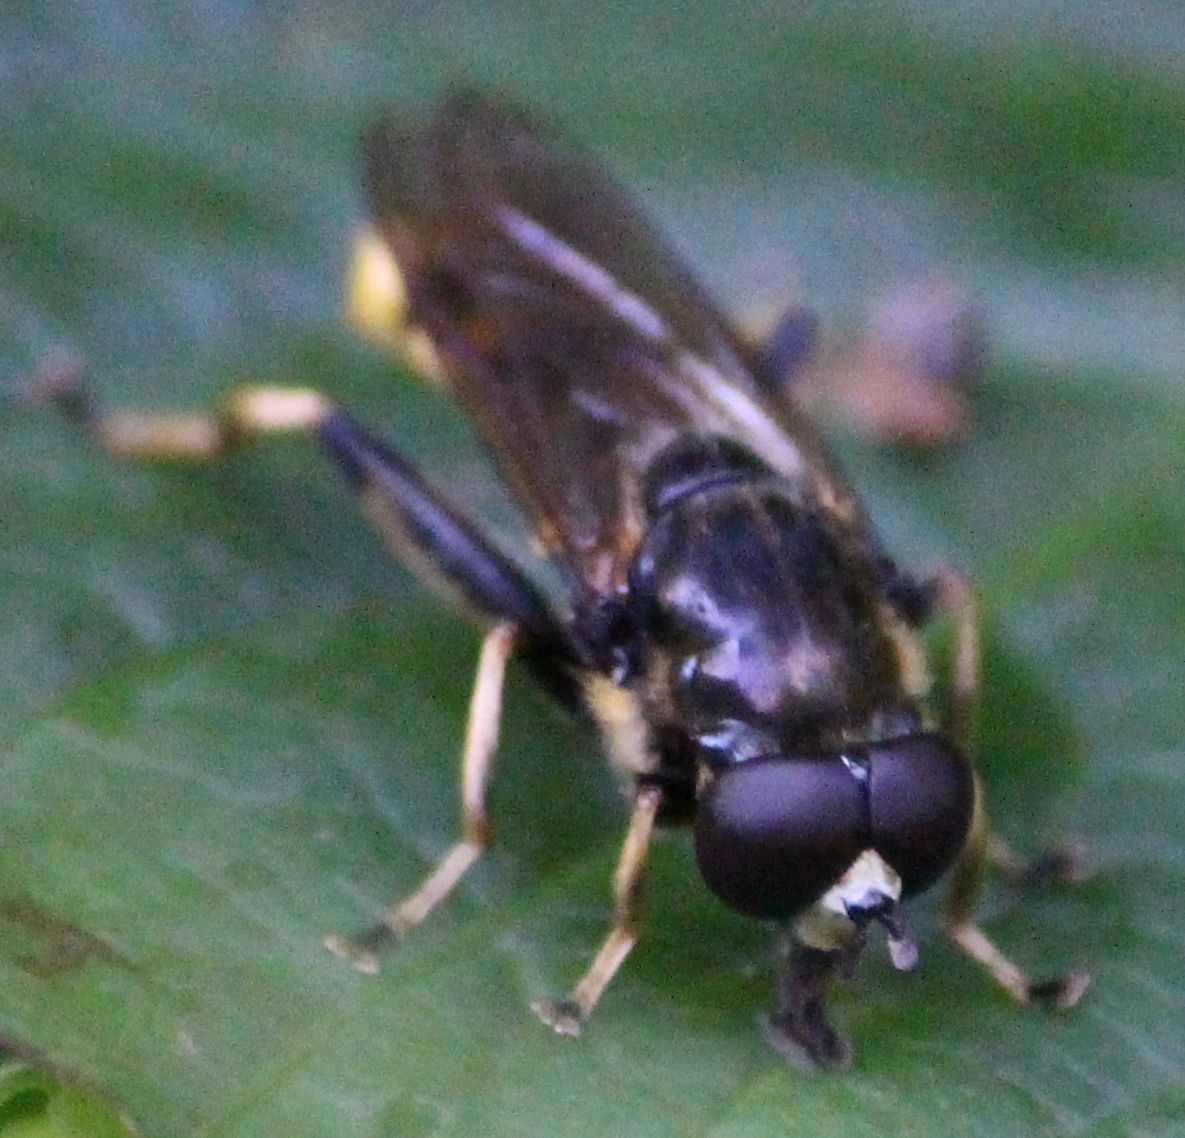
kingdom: Animalia
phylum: Arthropoda
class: Insecta
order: Diptera
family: Syrphidae
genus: Xylota
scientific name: Xylota sylvarum
